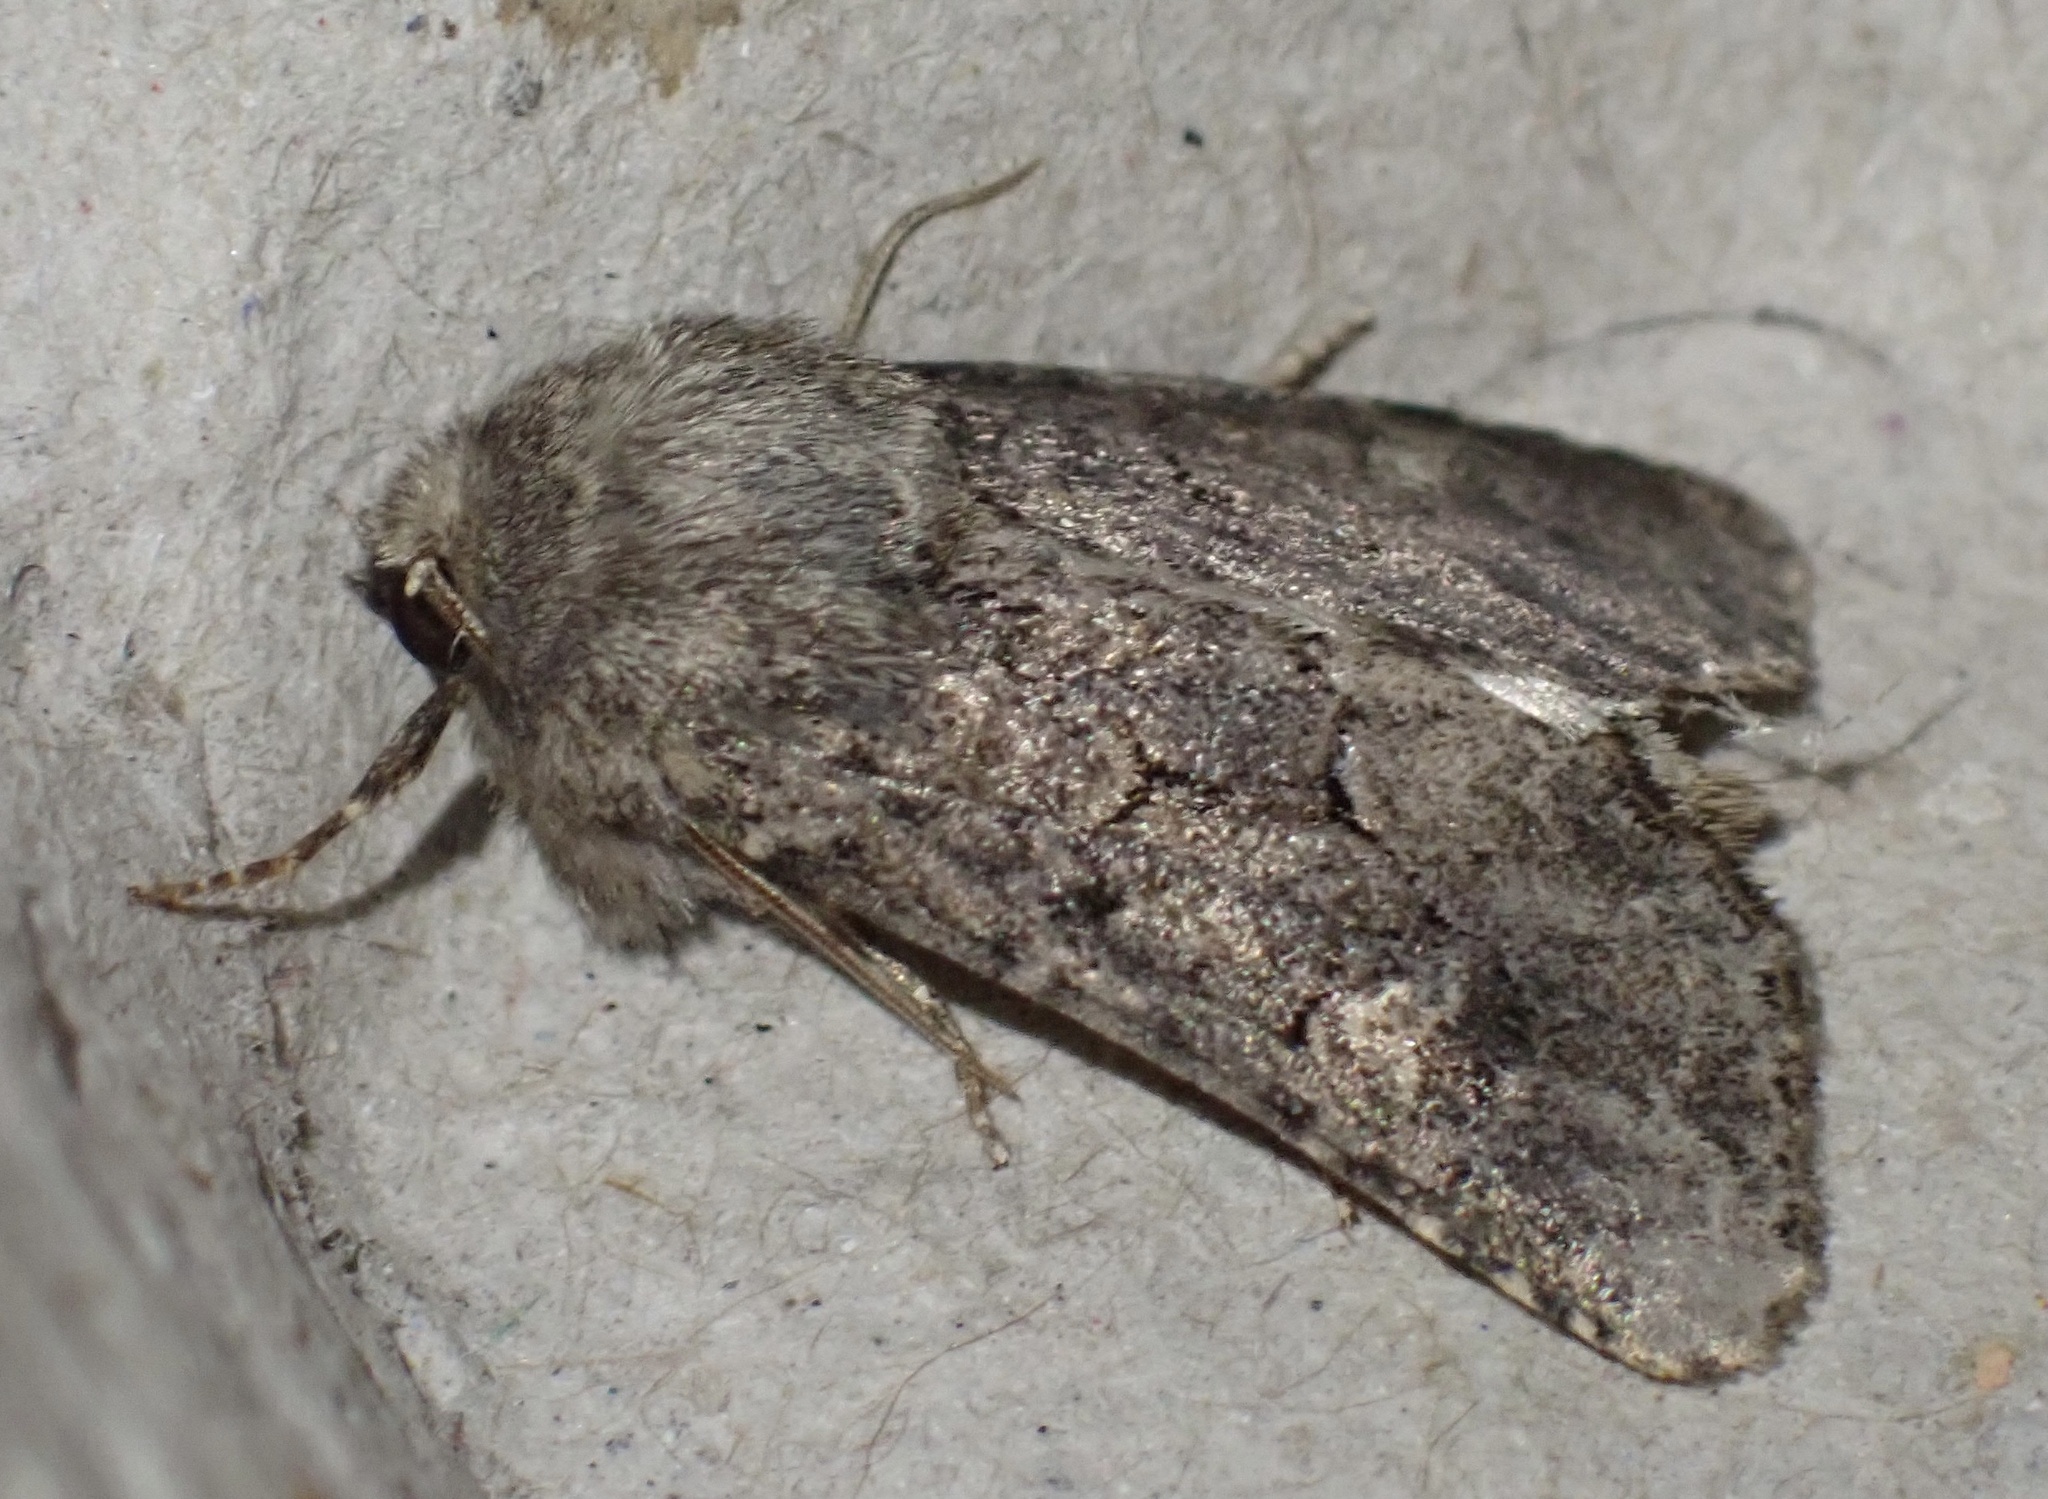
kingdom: Animalia
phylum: Arthropoda
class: Insecta
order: Lepidoptera
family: Noctuidae
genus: Luperina
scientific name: Luperina testacea
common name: Flounced rustic
